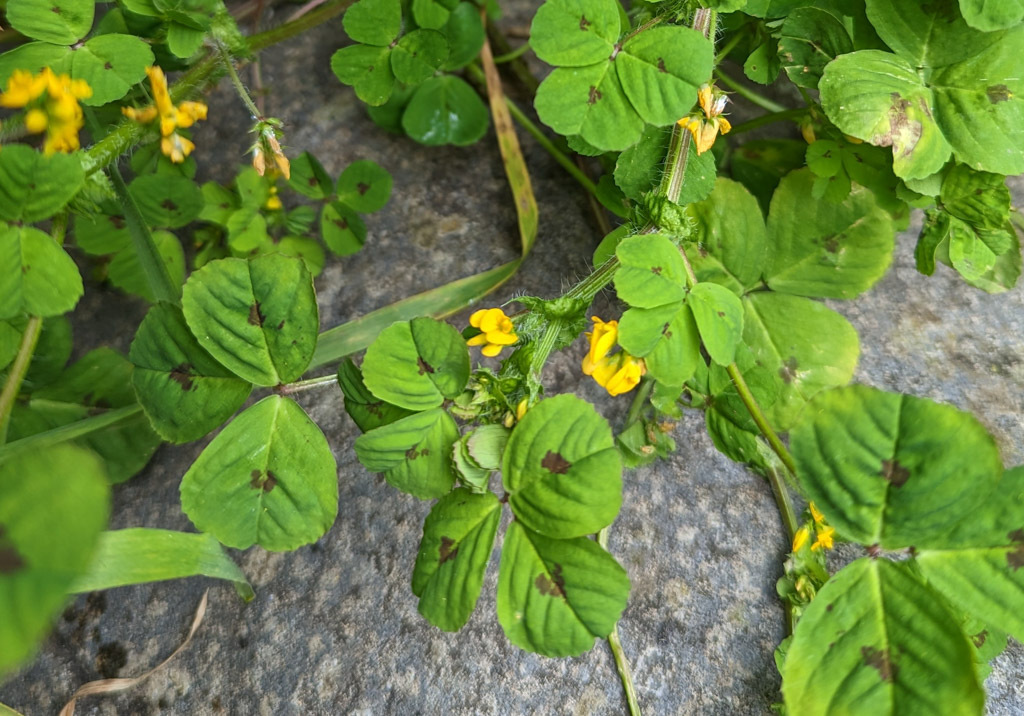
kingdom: Plantae
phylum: Tracheophyta
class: Magnoliopsida
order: Fabales
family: Fabaceae
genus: Medicago
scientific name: Medicago arabica
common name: Spotted medick
